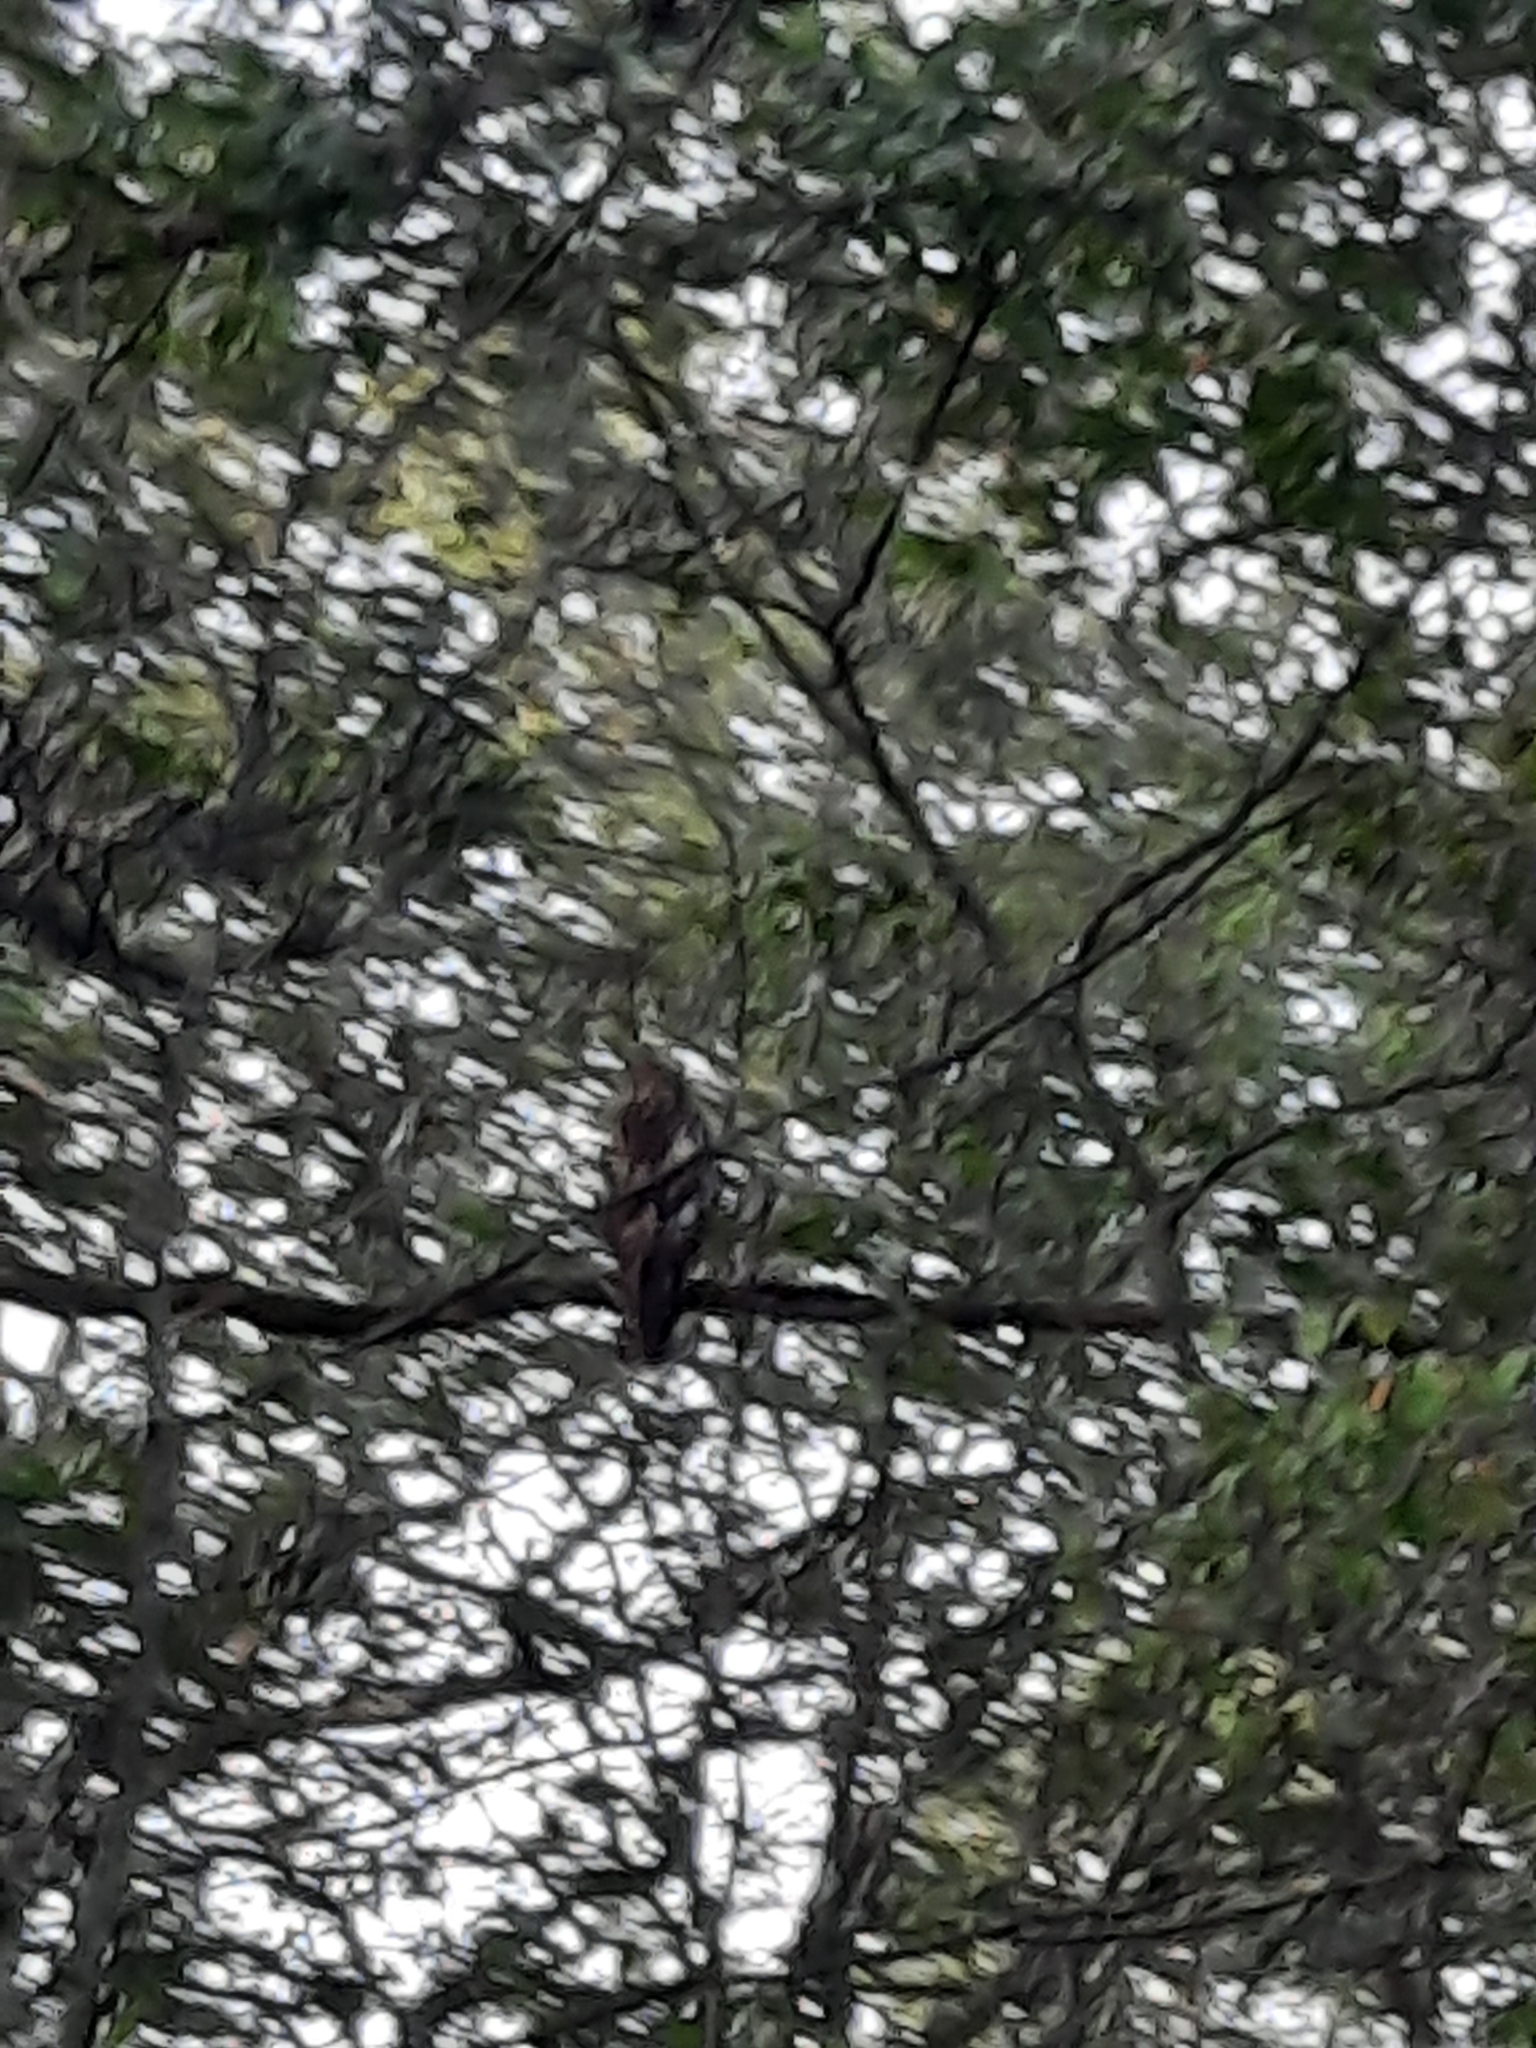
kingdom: Animalia
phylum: Chordata
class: Aves
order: Accipitriformes
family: Accipitridae
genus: Buteo
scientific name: Buteo lineatus
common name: Red-shouldered hawk
